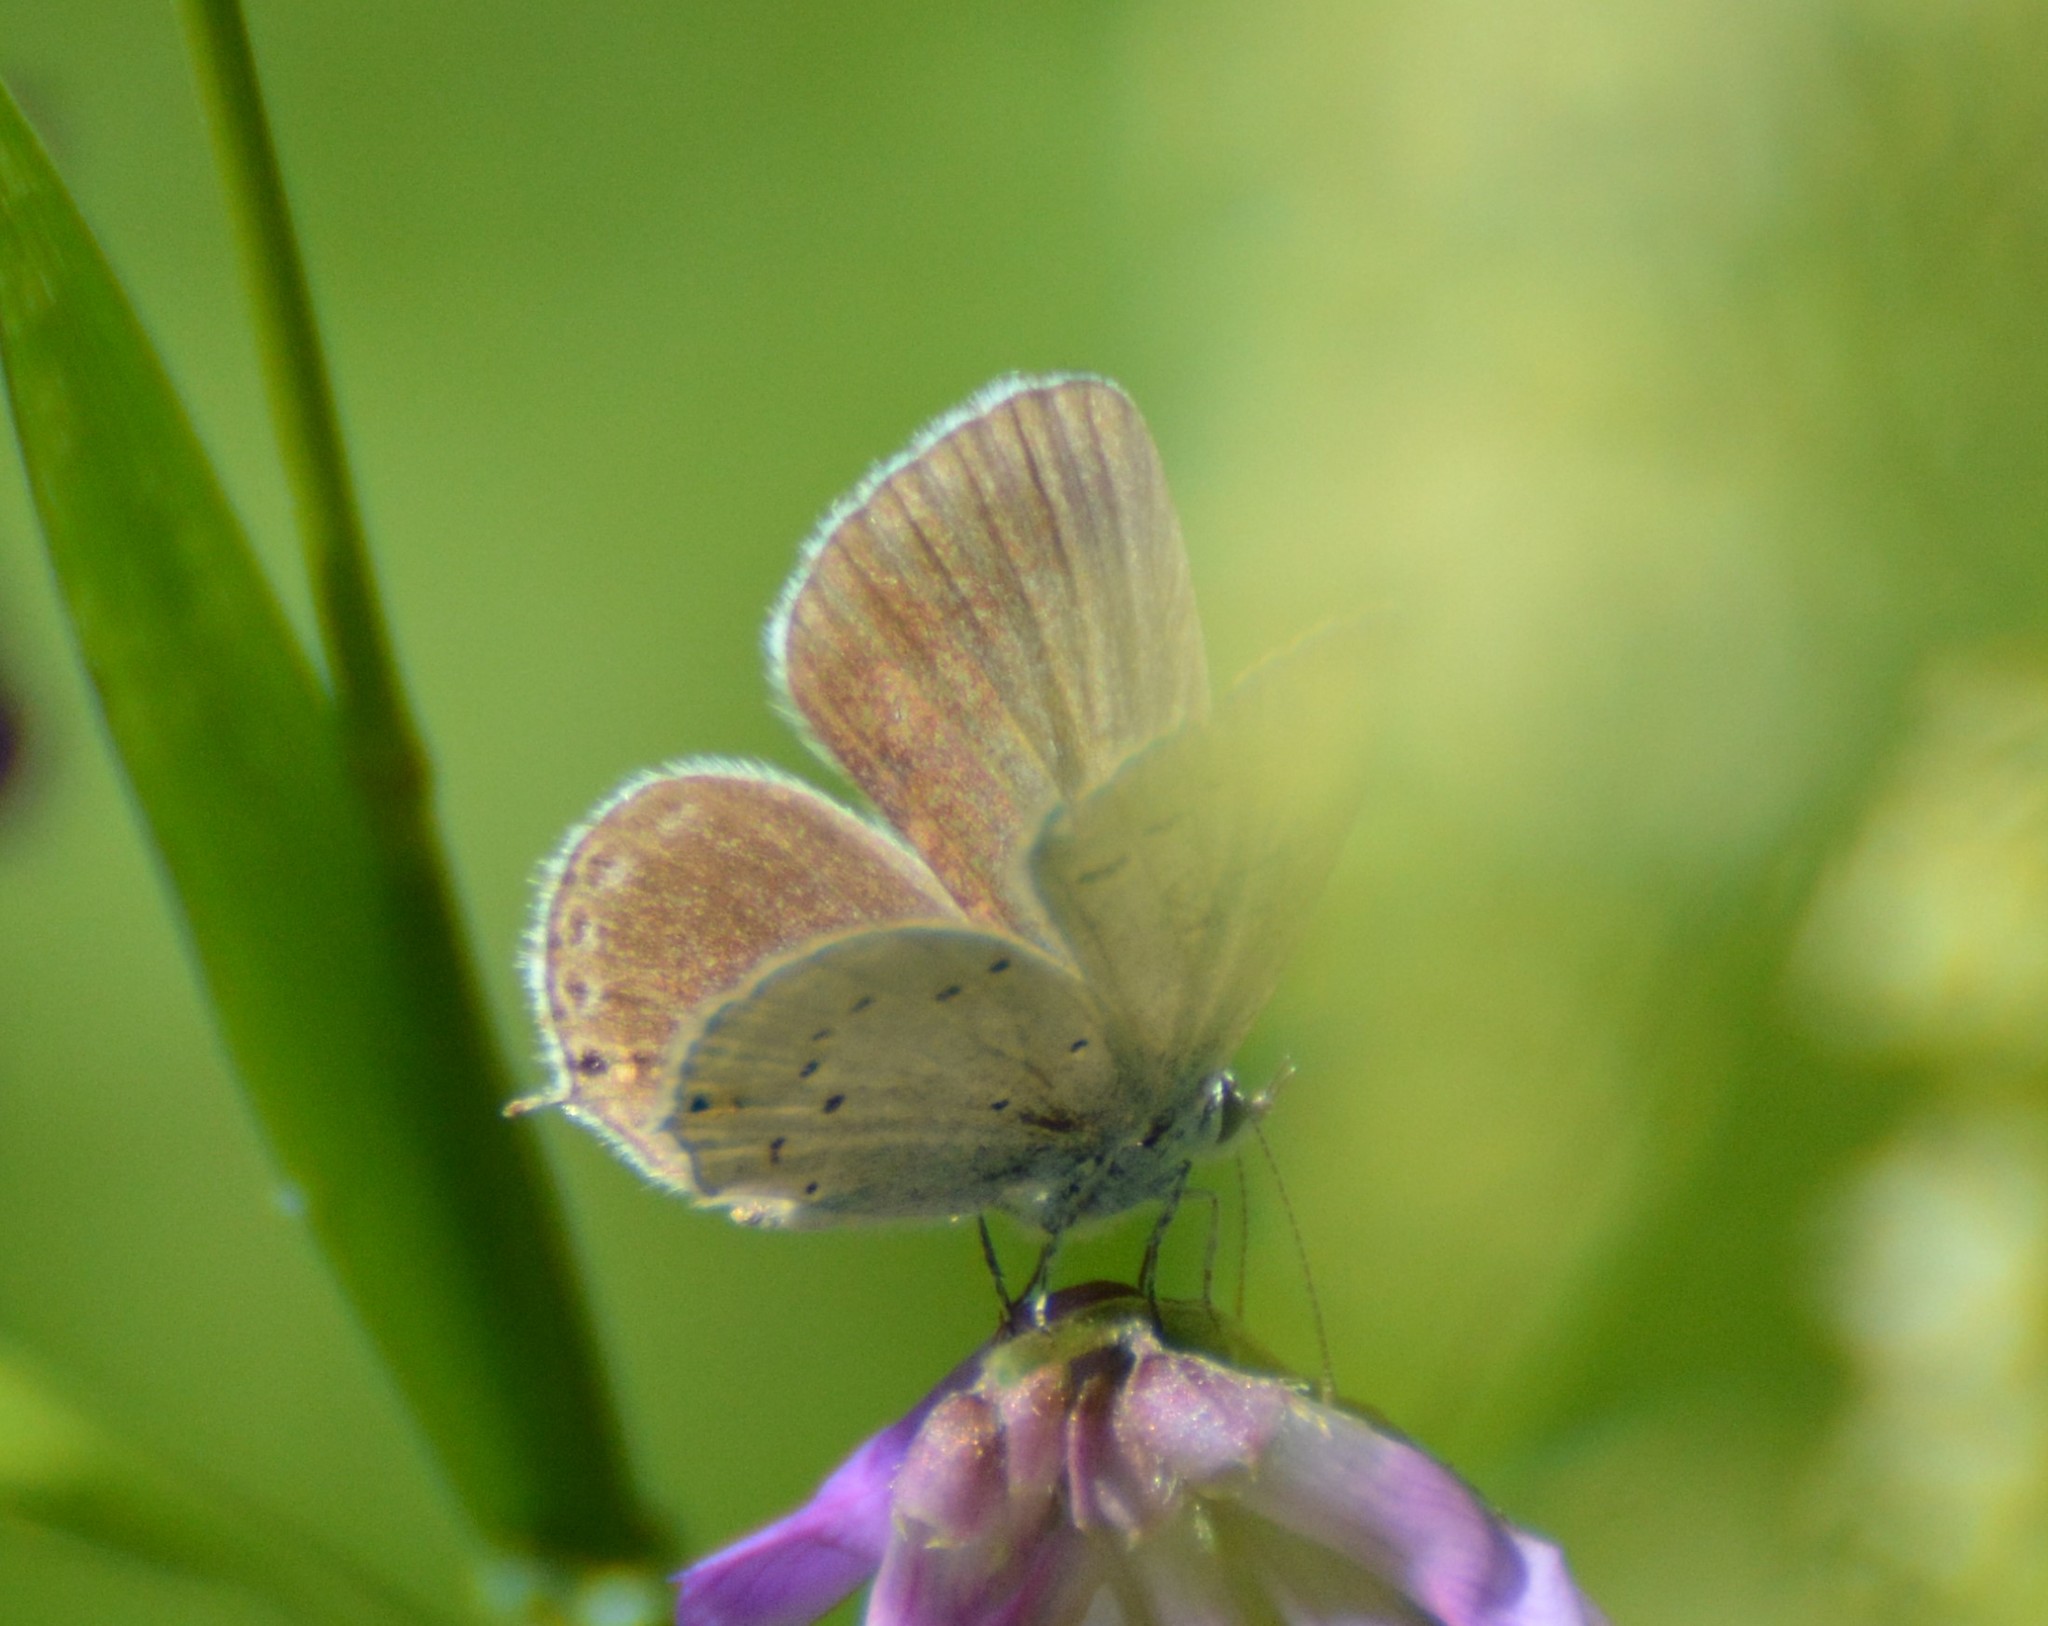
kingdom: Animalia
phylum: Arthropoda
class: Insecta
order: Lepidoptera
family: Lycaenidae
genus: Elkalyce
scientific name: Elkalyce amyntula
